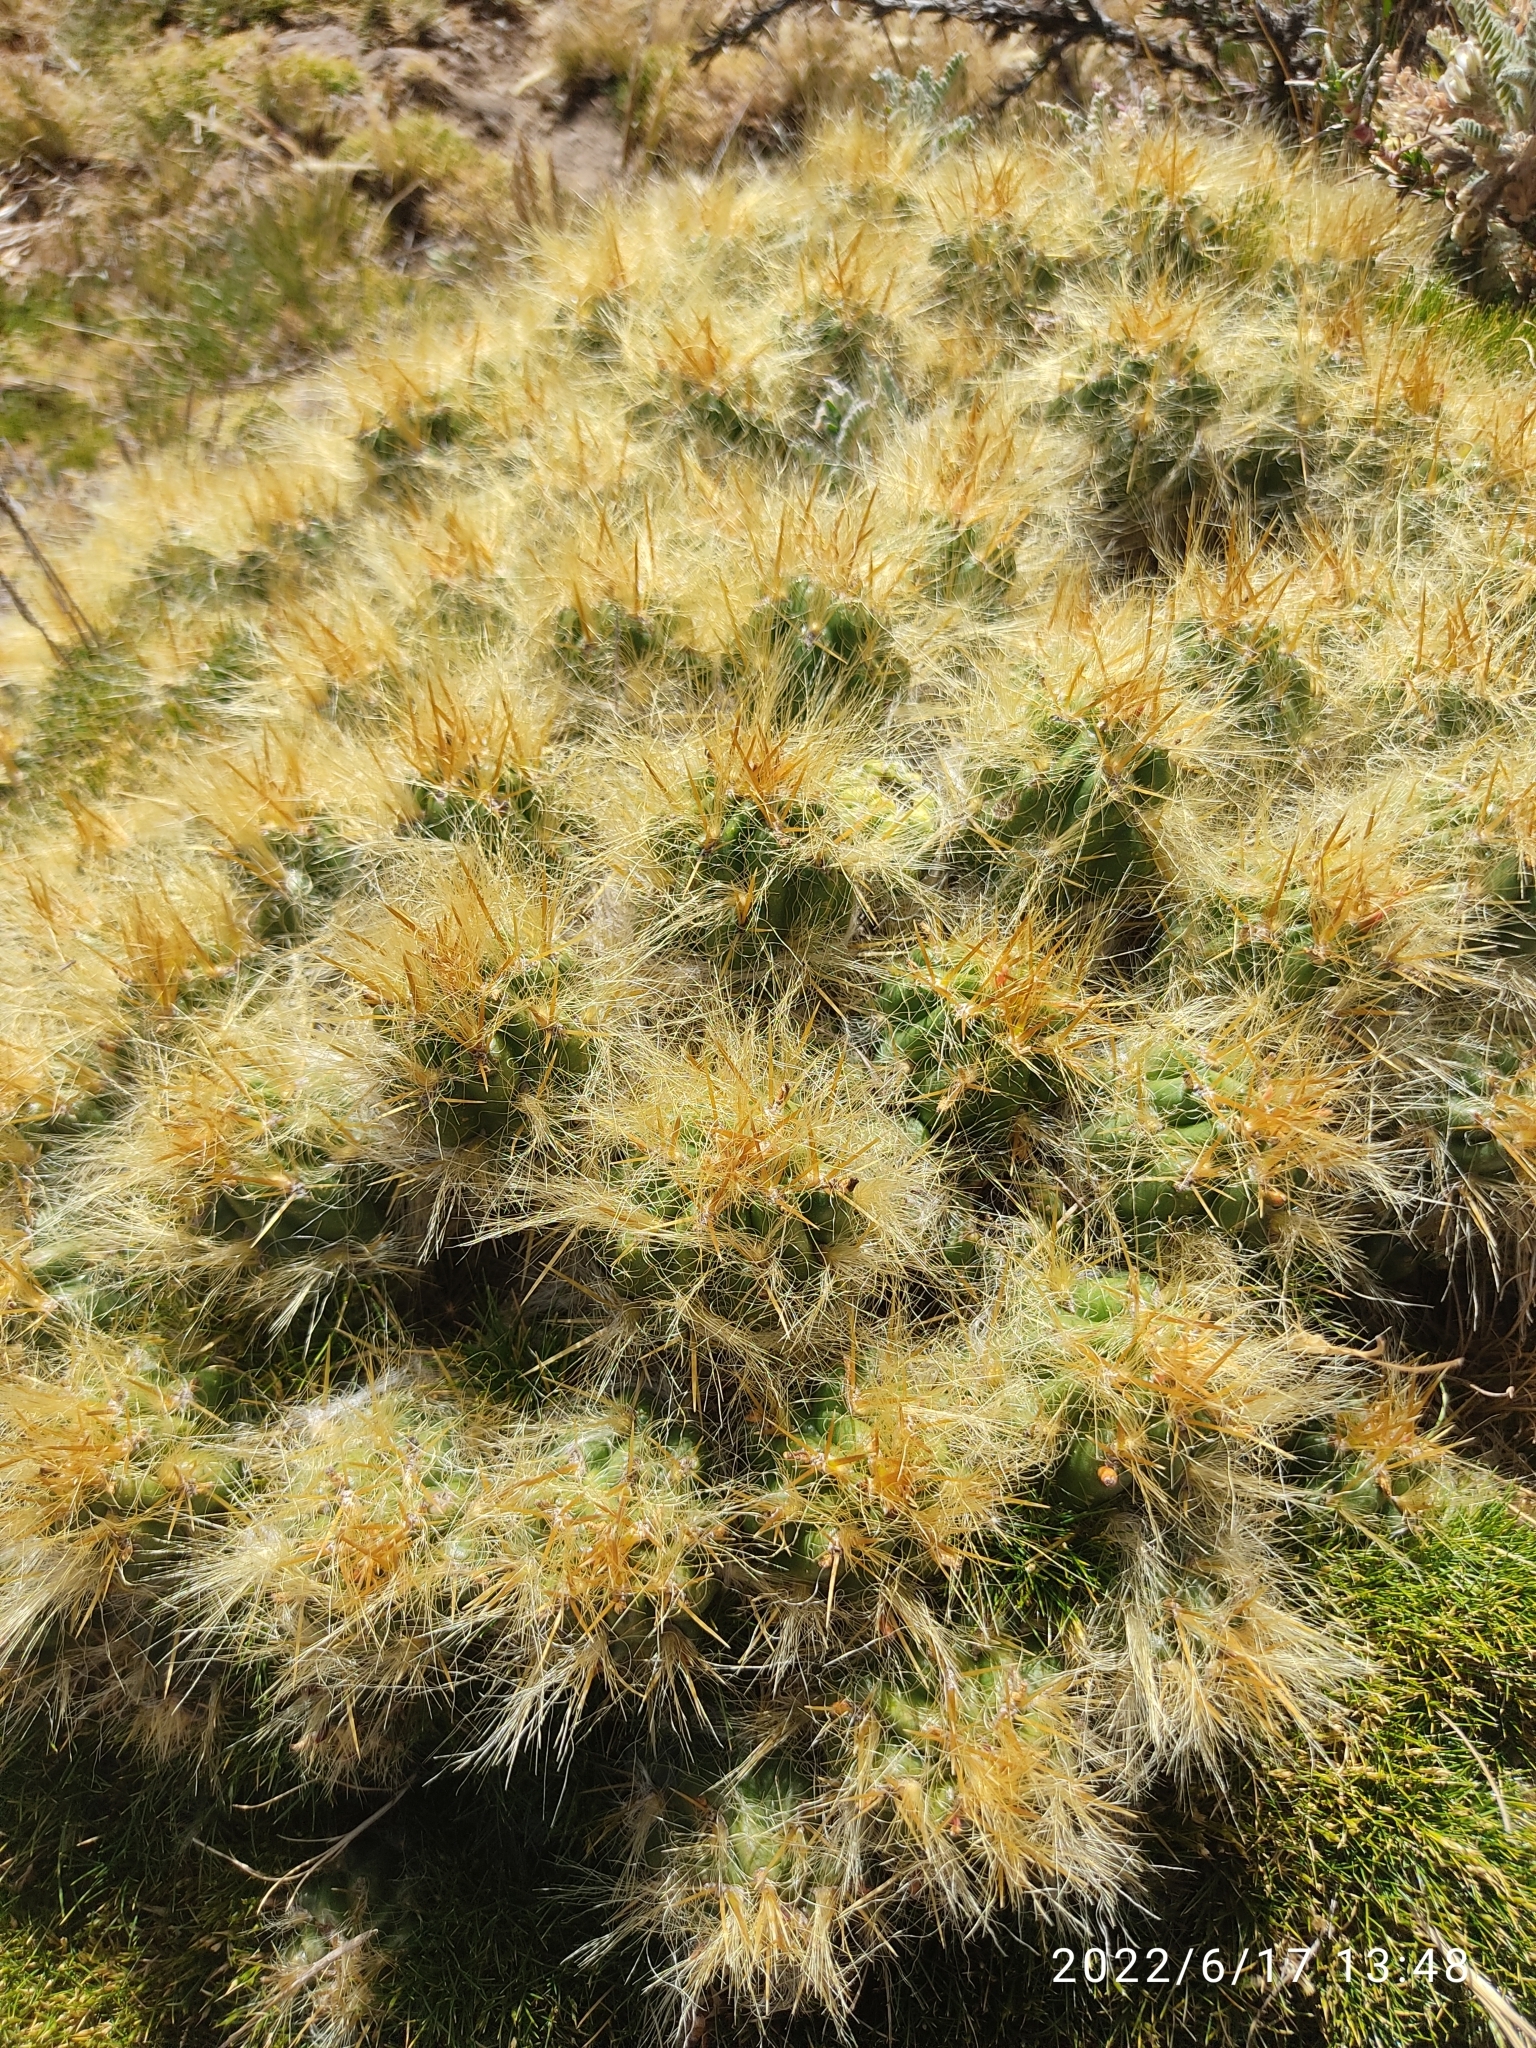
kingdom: Plantae
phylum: Tracheophyta
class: Magnoliopsida
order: Caryophyllales
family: Cactaceae
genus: Austrocylindropuntia
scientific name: Austrocylindropuntia floccosa
